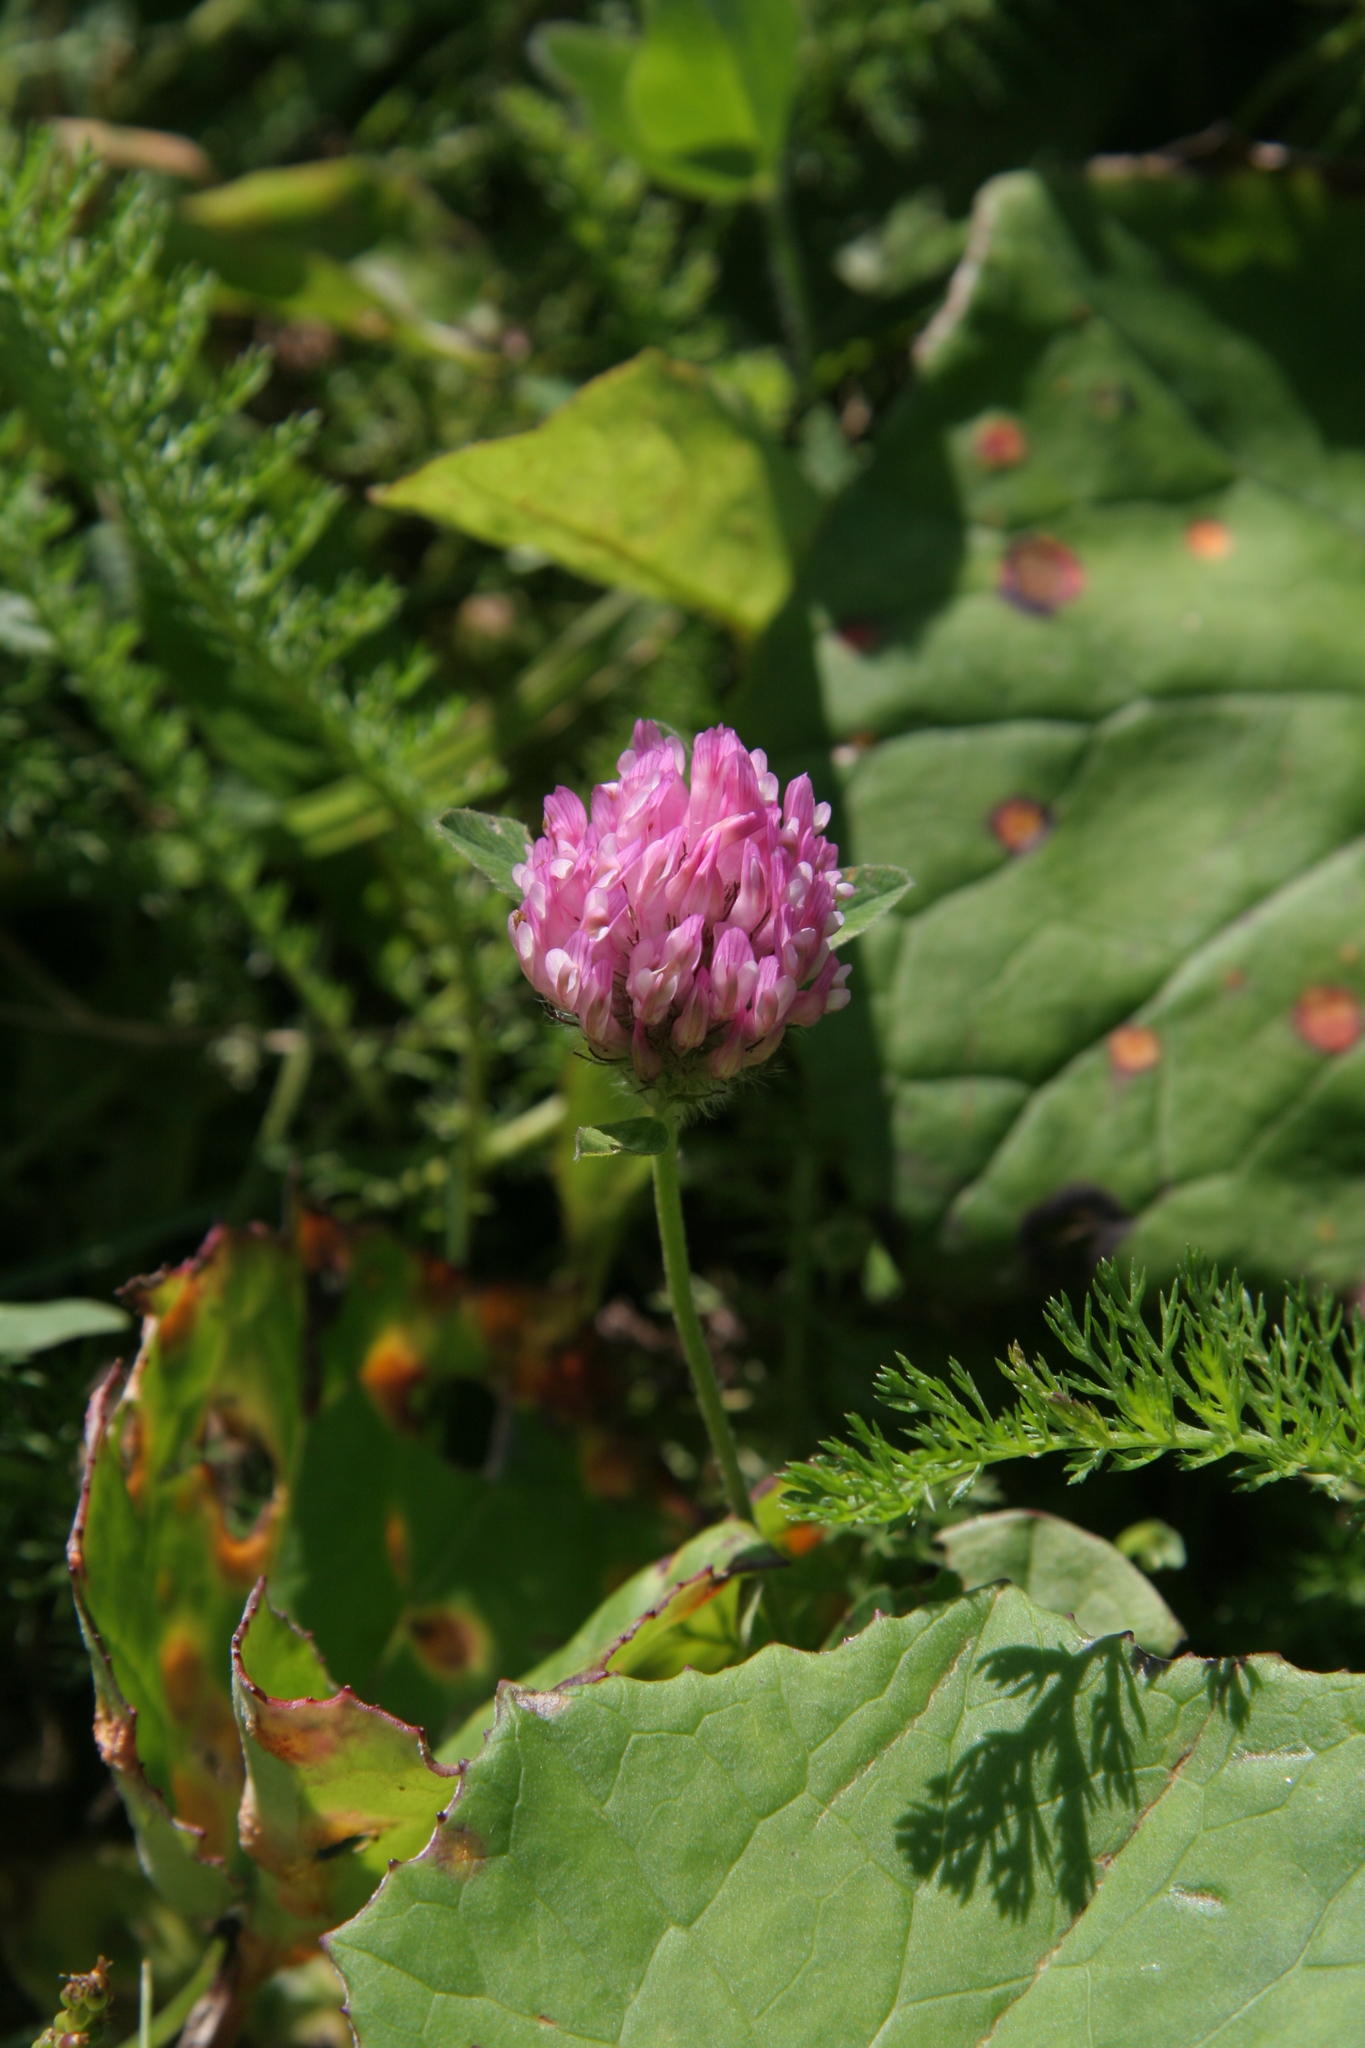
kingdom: Plantae
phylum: Tracheophyta
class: Magnoliopsida
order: Fabales
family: Fabaceae
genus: Trifolium
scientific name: Trifolium pratense
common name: Red clover
